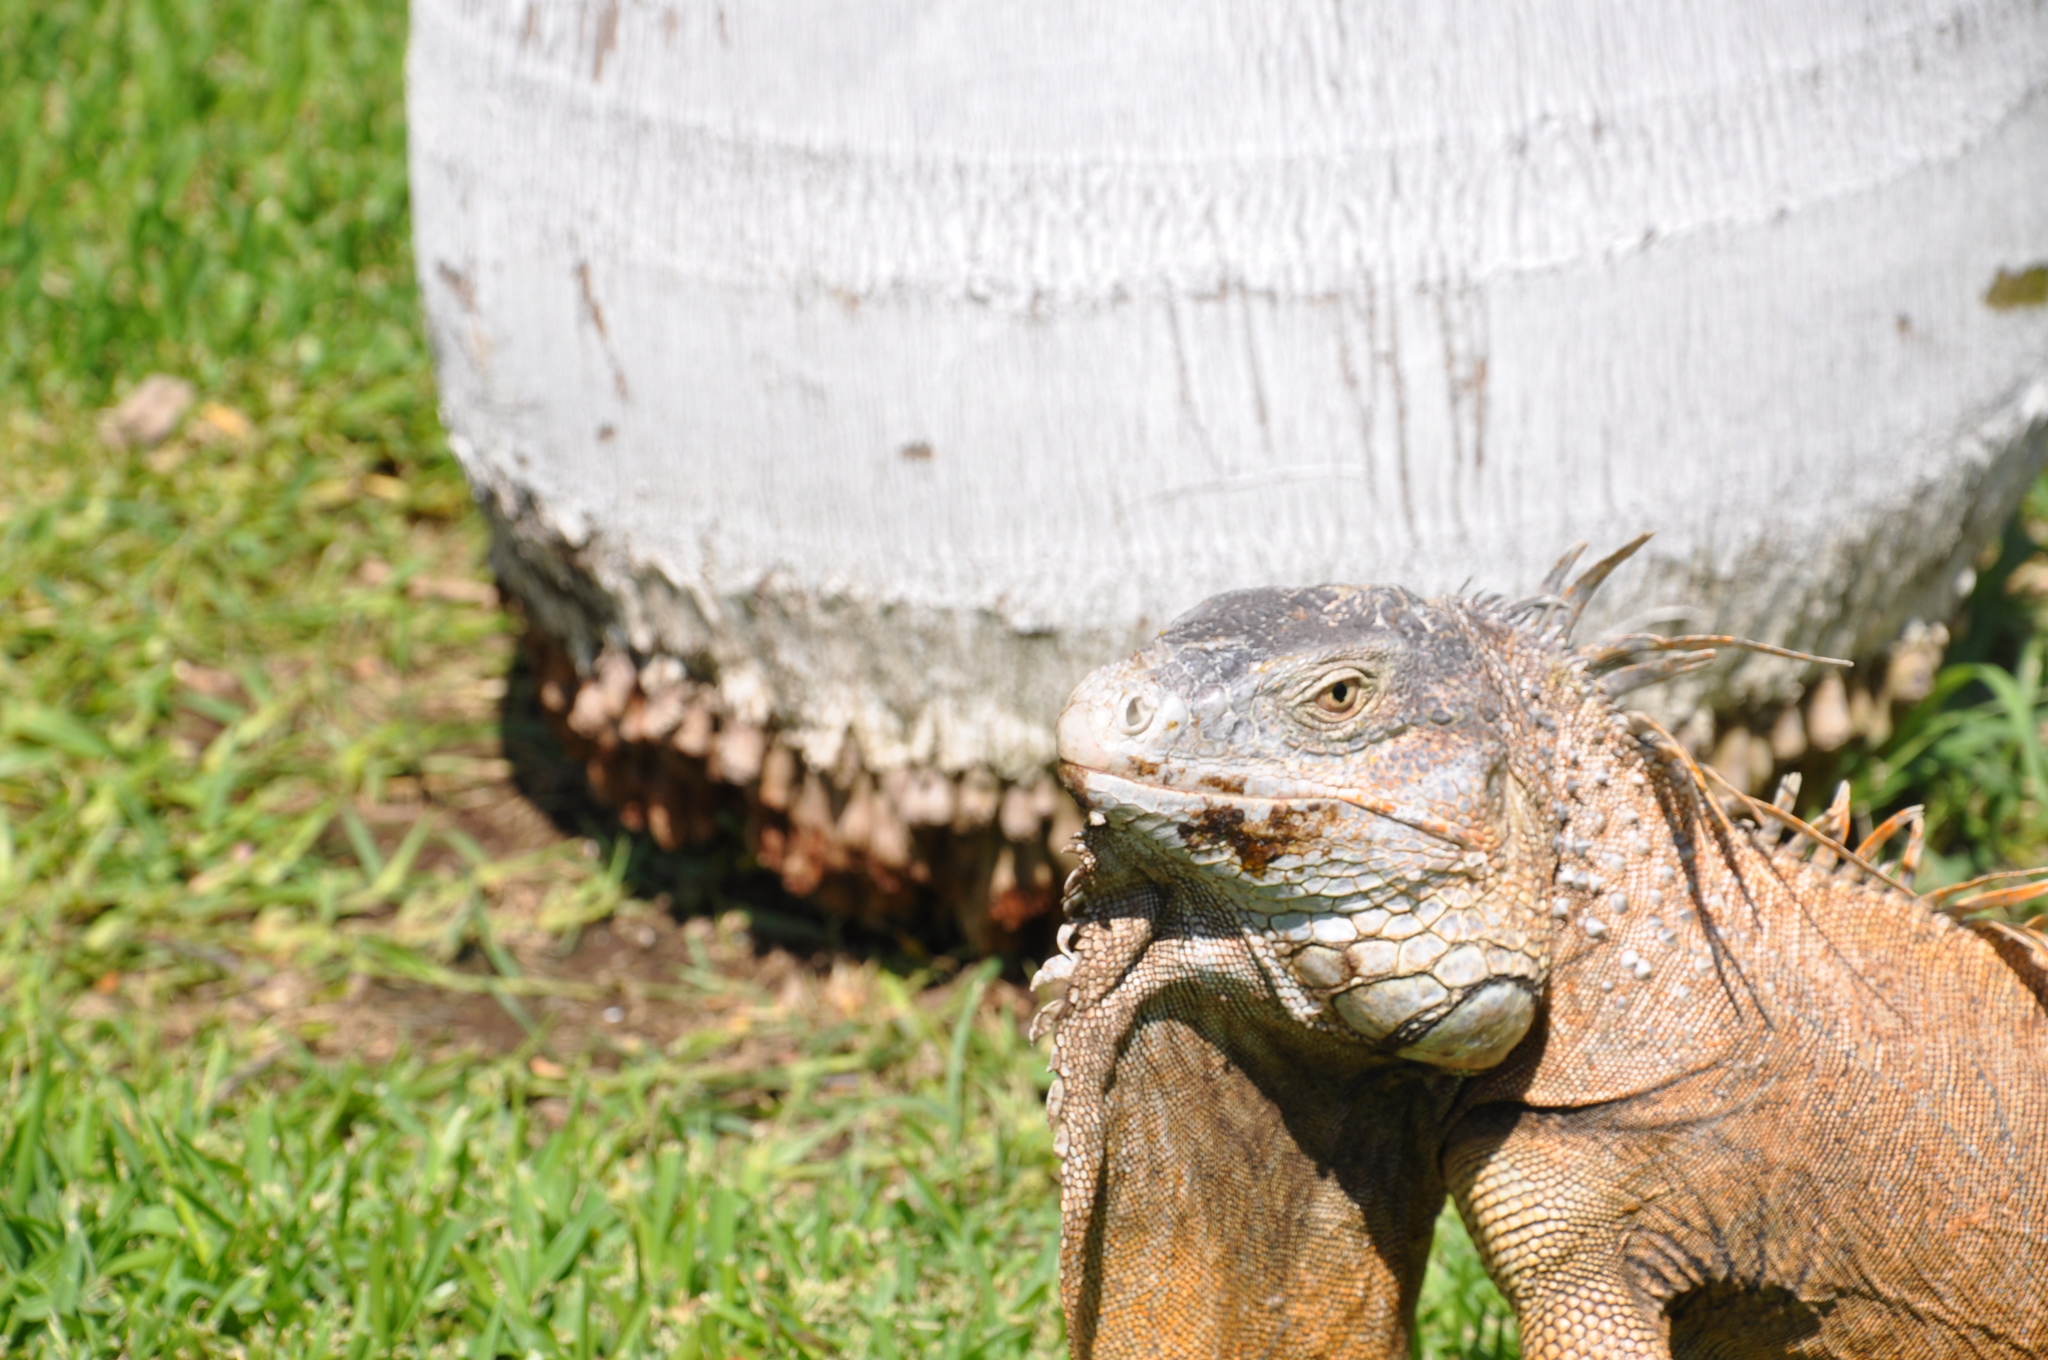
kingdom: Animalia
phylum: Chordata
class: Squamata
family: Iguanidae
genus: Iguana
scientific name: Iguana iguana
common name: Green iguana
